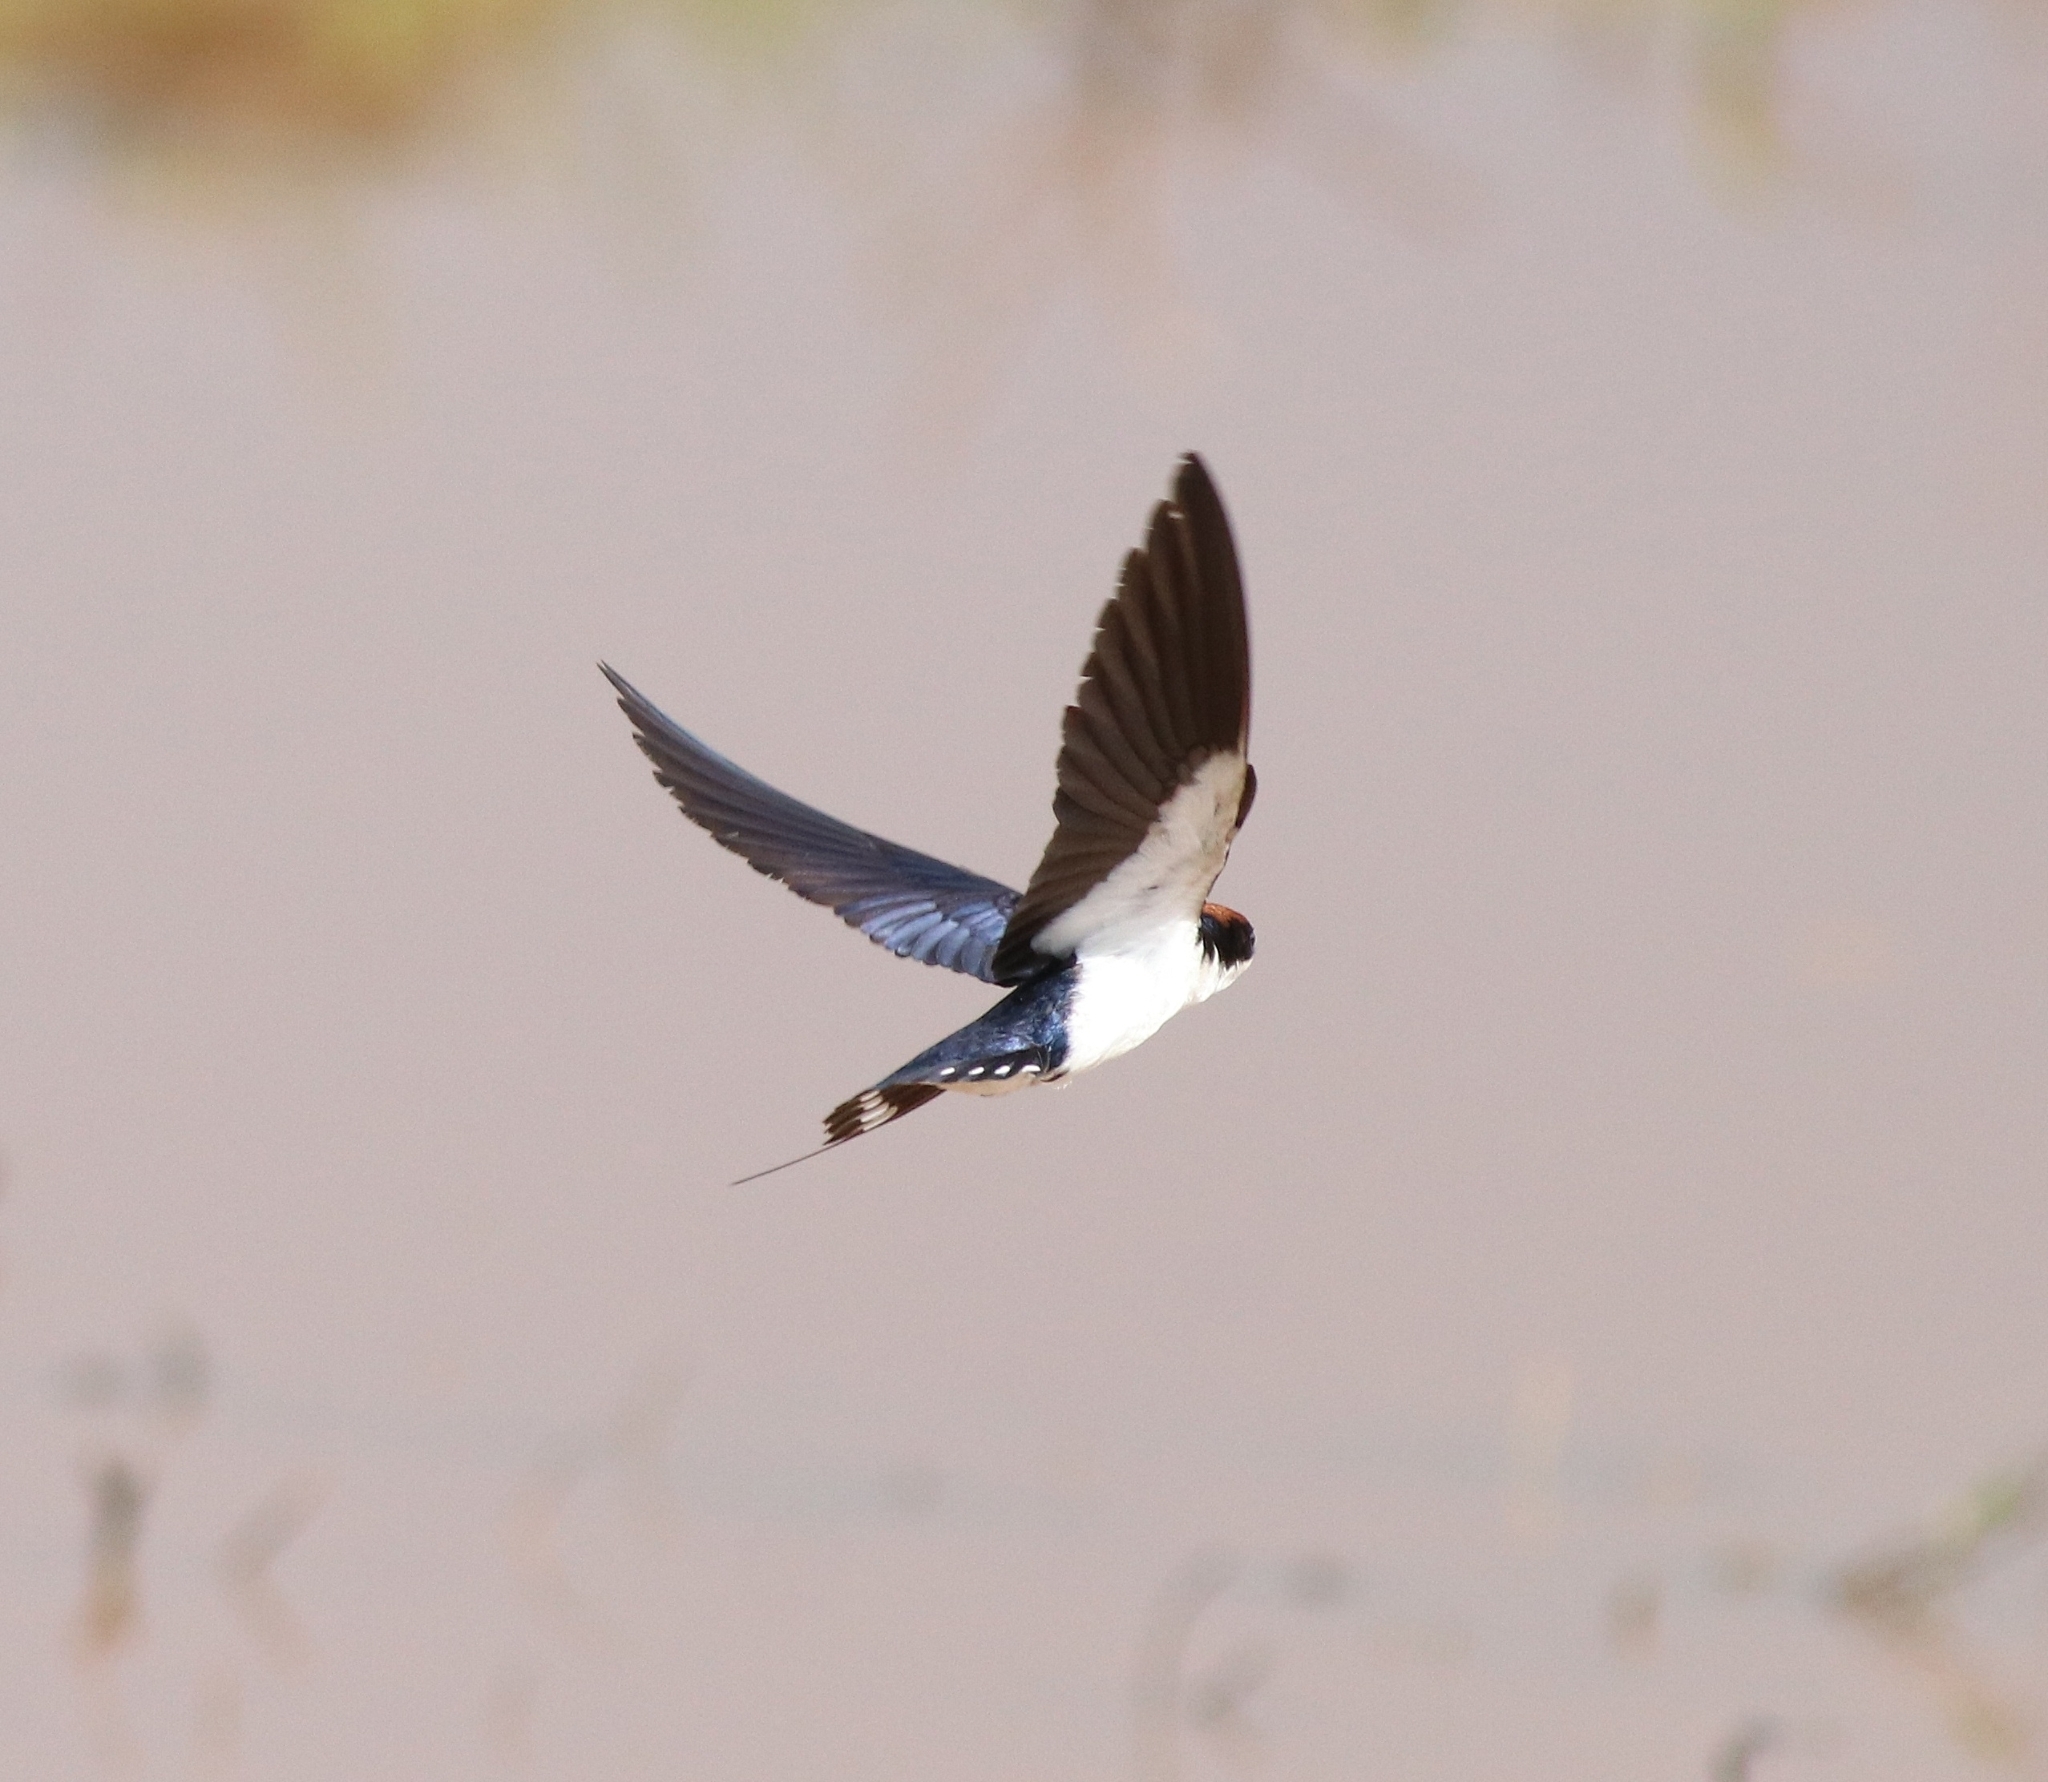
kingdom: Animalia
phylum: Chordata
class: Aves
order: Passeriformes
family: Hirundinidae
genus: Hirundo
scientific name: Hirundo smithii
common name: Wire-tailed swallow
